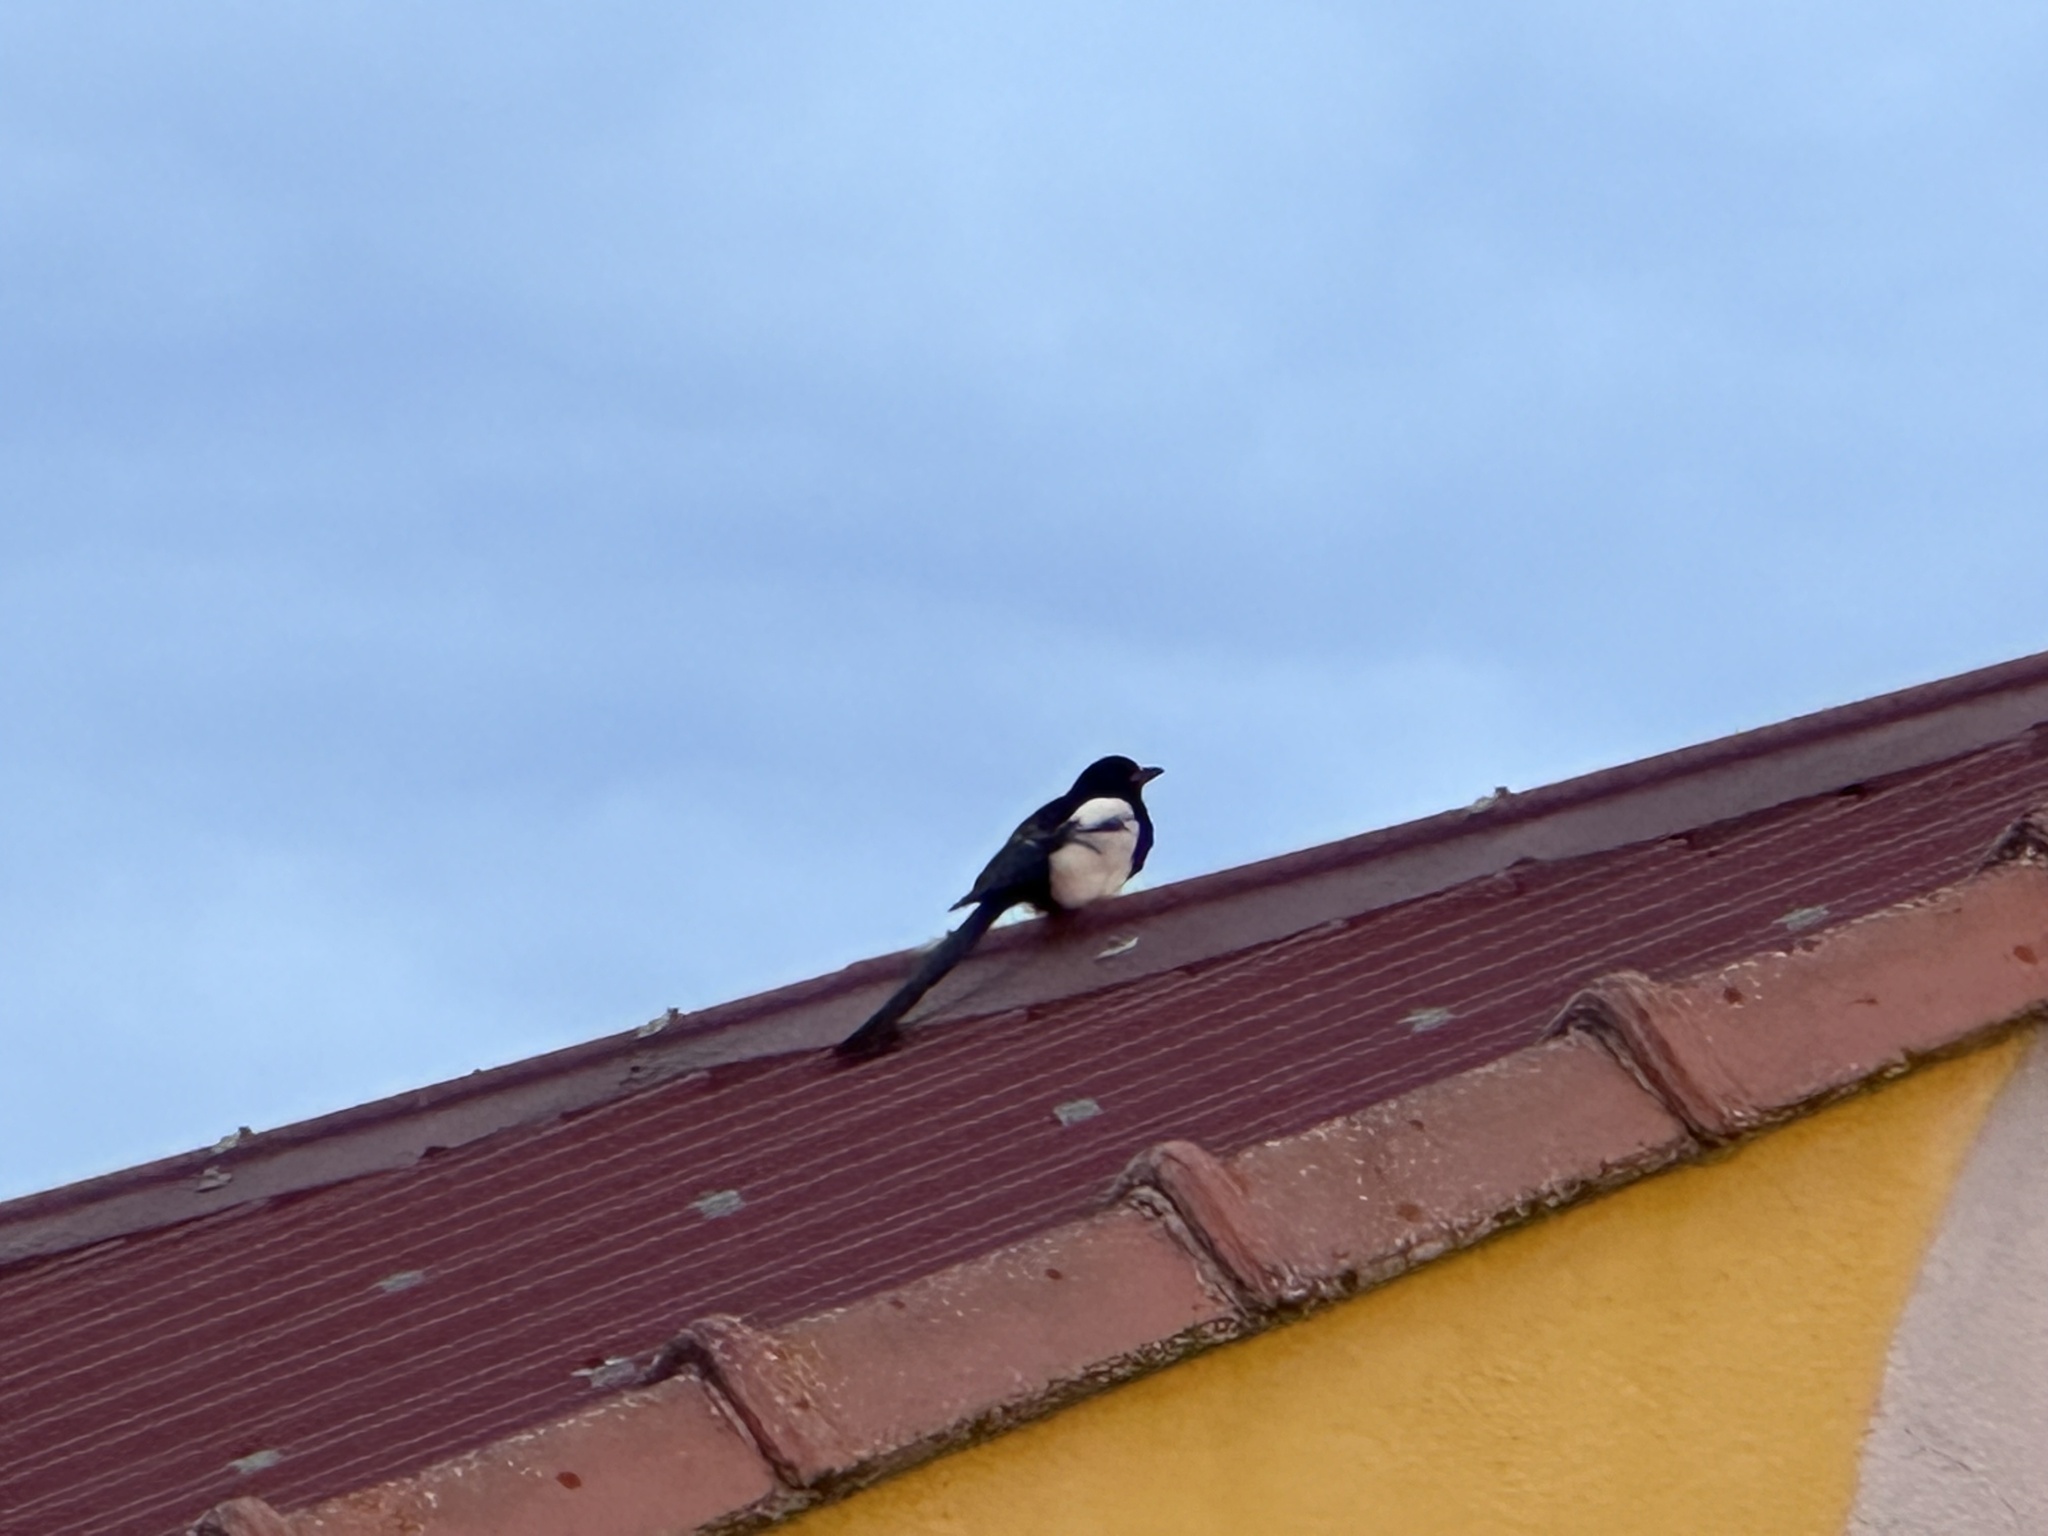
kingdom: Animalia
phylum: Chordata
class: Aves
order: Passeriformes
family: Corvidae
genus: Pica
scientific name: Pica pica
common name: Eurasian magpie
